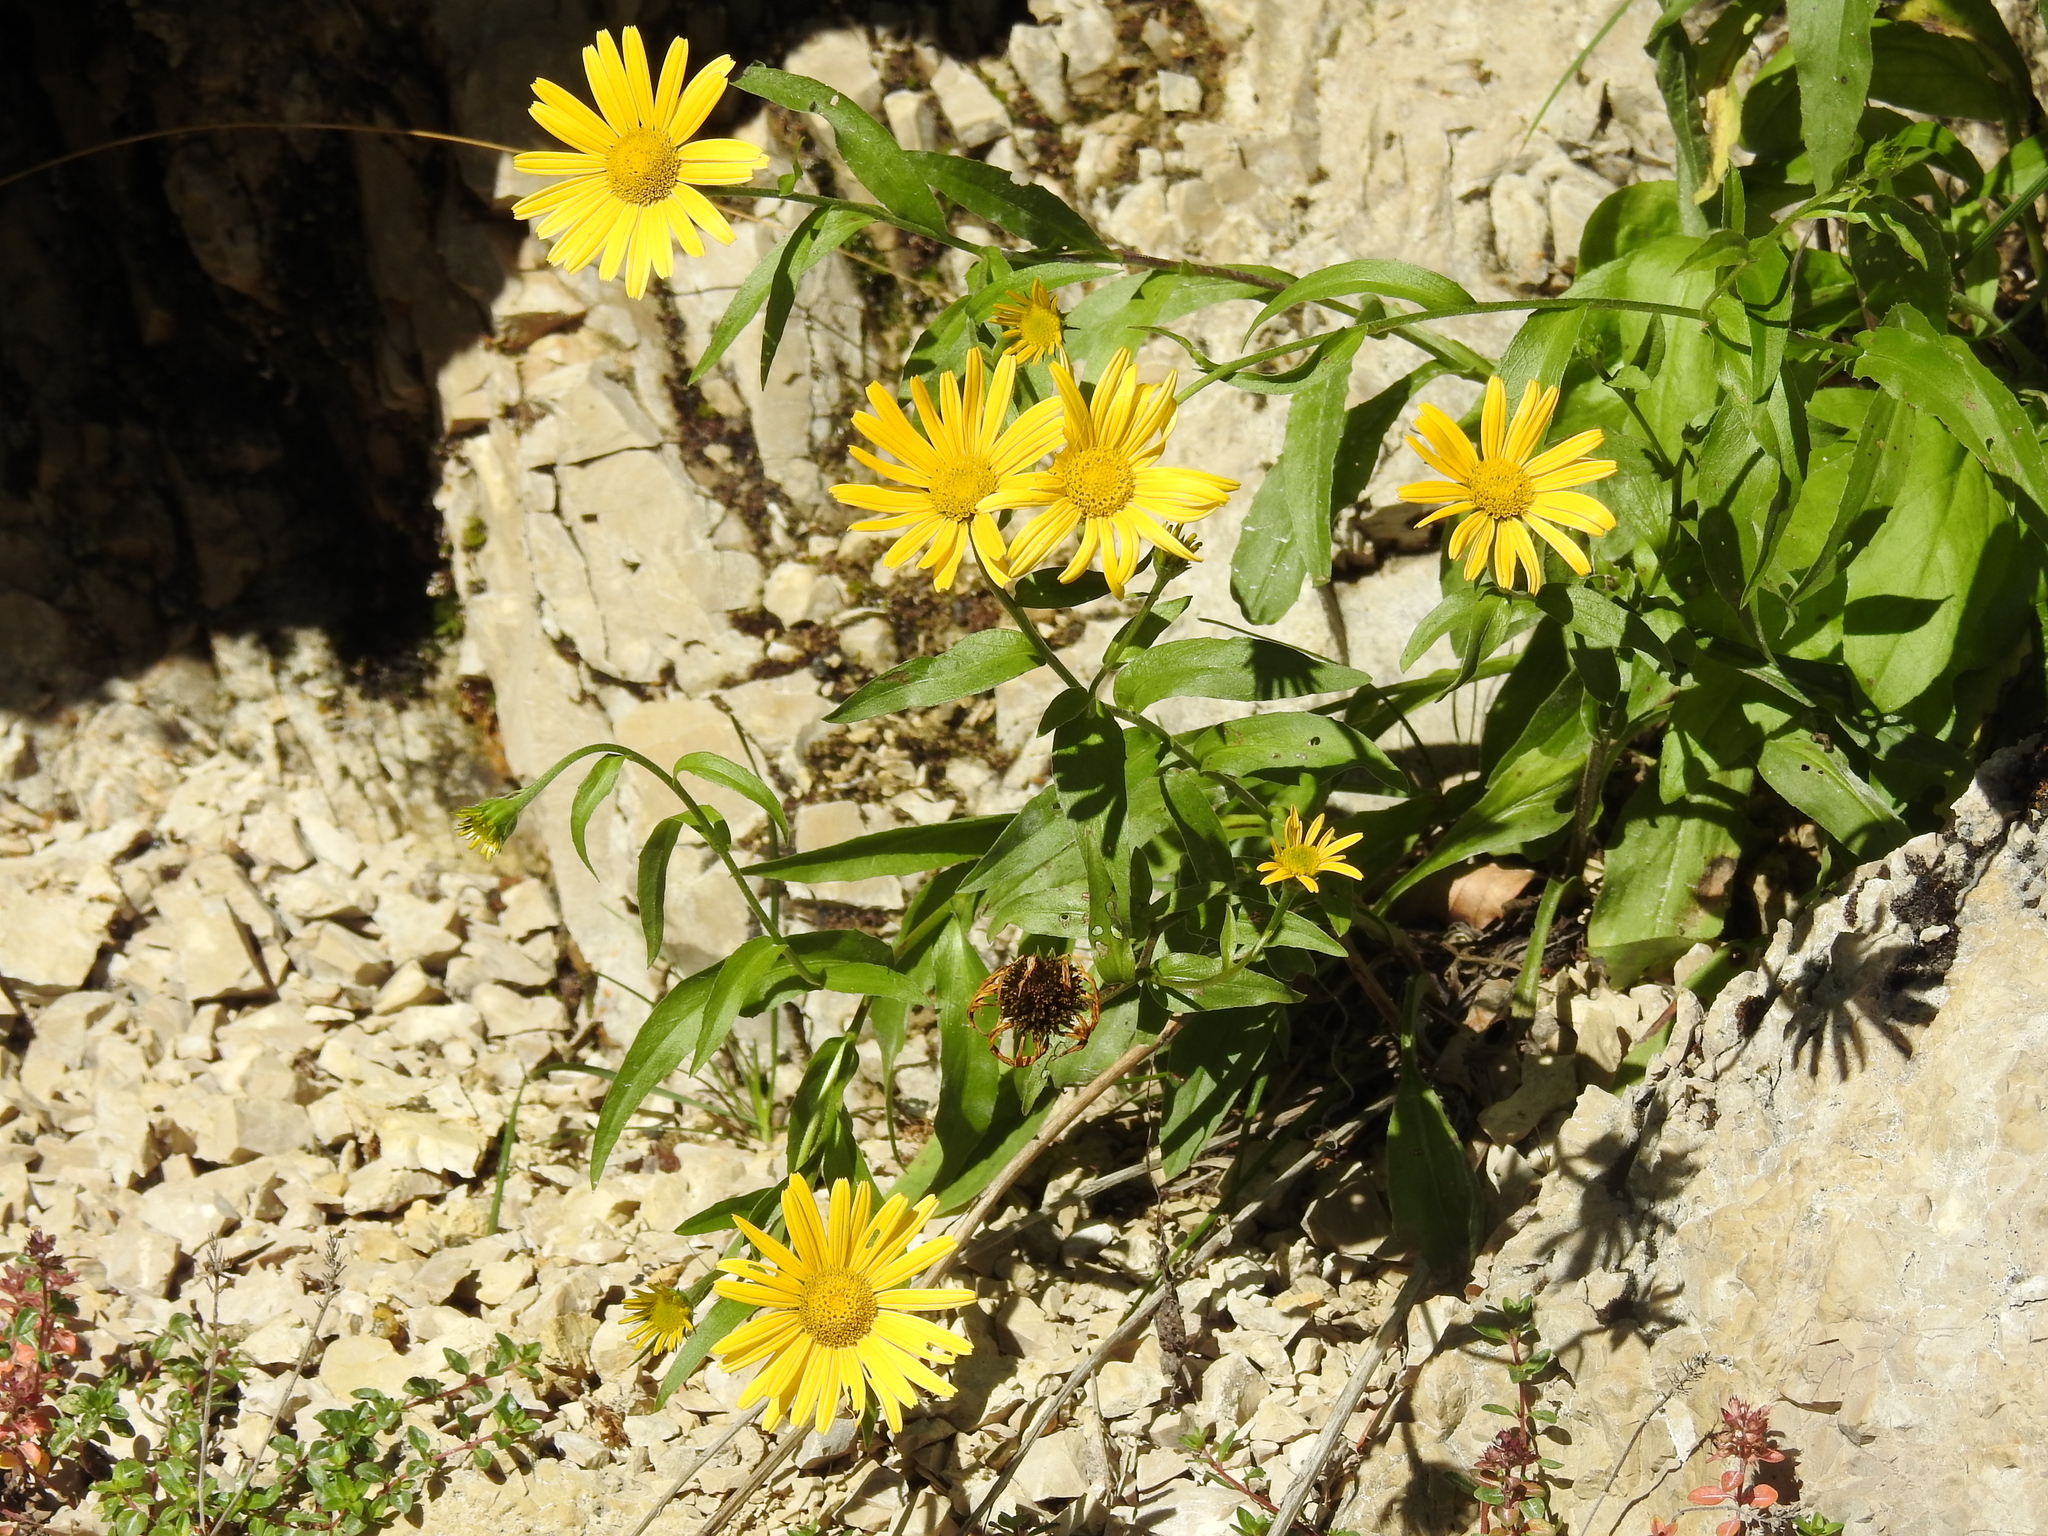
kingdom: Plantae
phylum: Tracheophyta
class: Magnoliopsida
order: Asterales
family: Asteraceae
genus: Buphthalmum
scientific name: Buphthalmum salicifolium
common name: Willow-leaved yellow-oxeye
